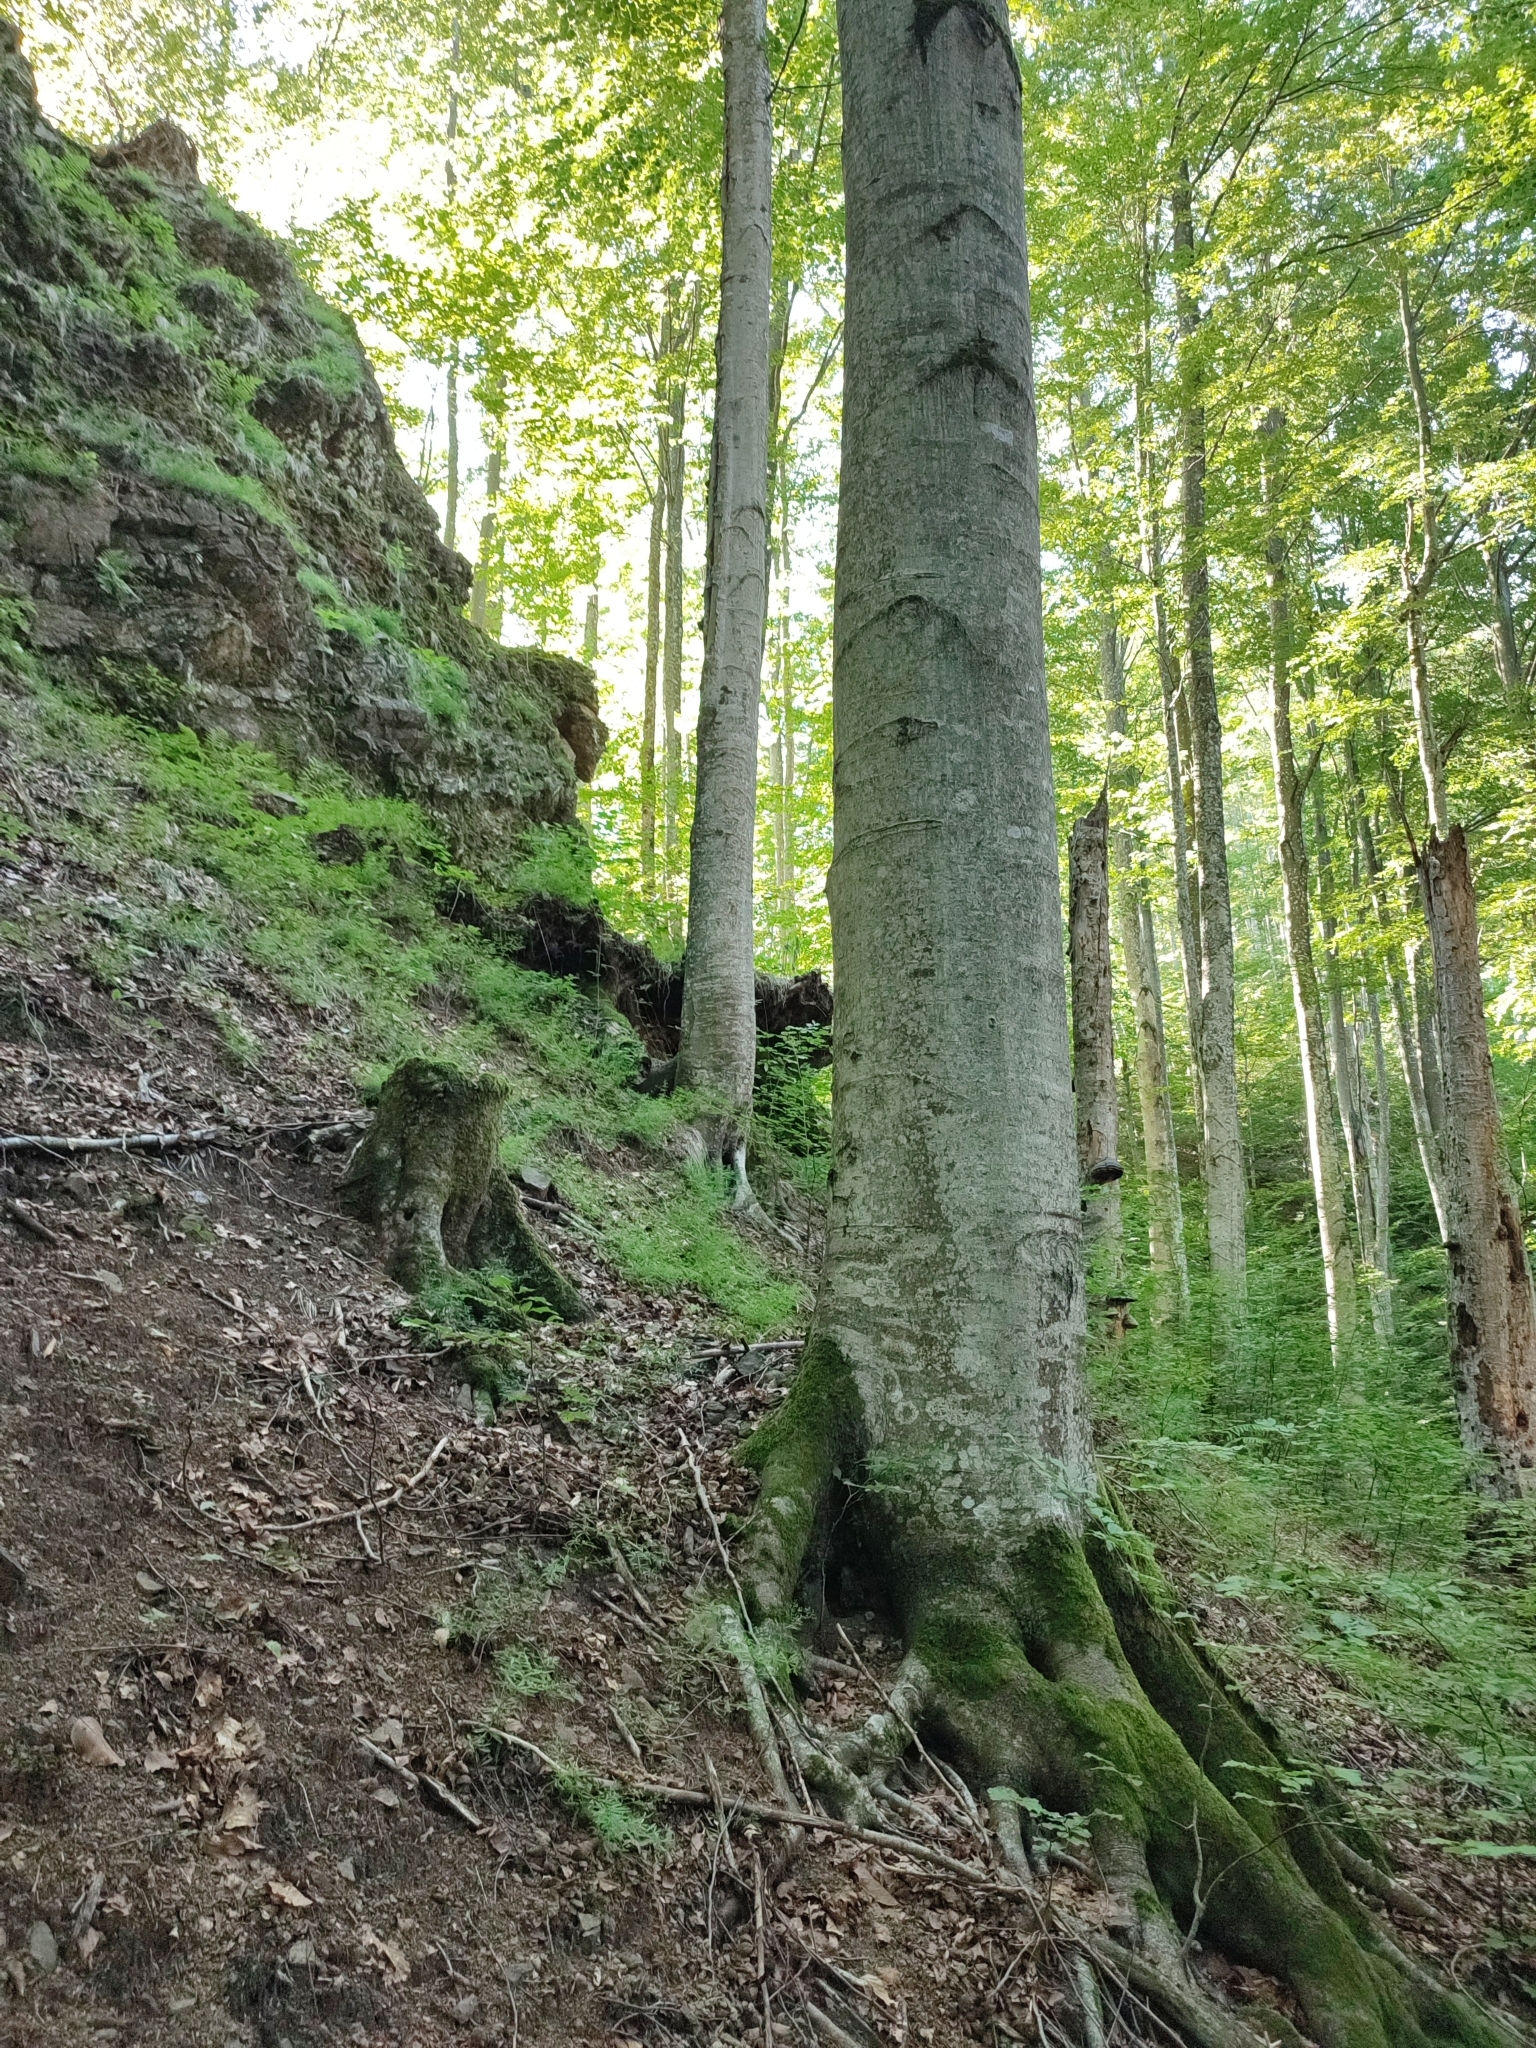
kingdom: Plantae
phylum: Tracheophyta
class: Magnoliopsida
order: Fagales
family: Fagaceae
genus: Fagus
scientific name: Fagus sylvatica
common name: Beech
